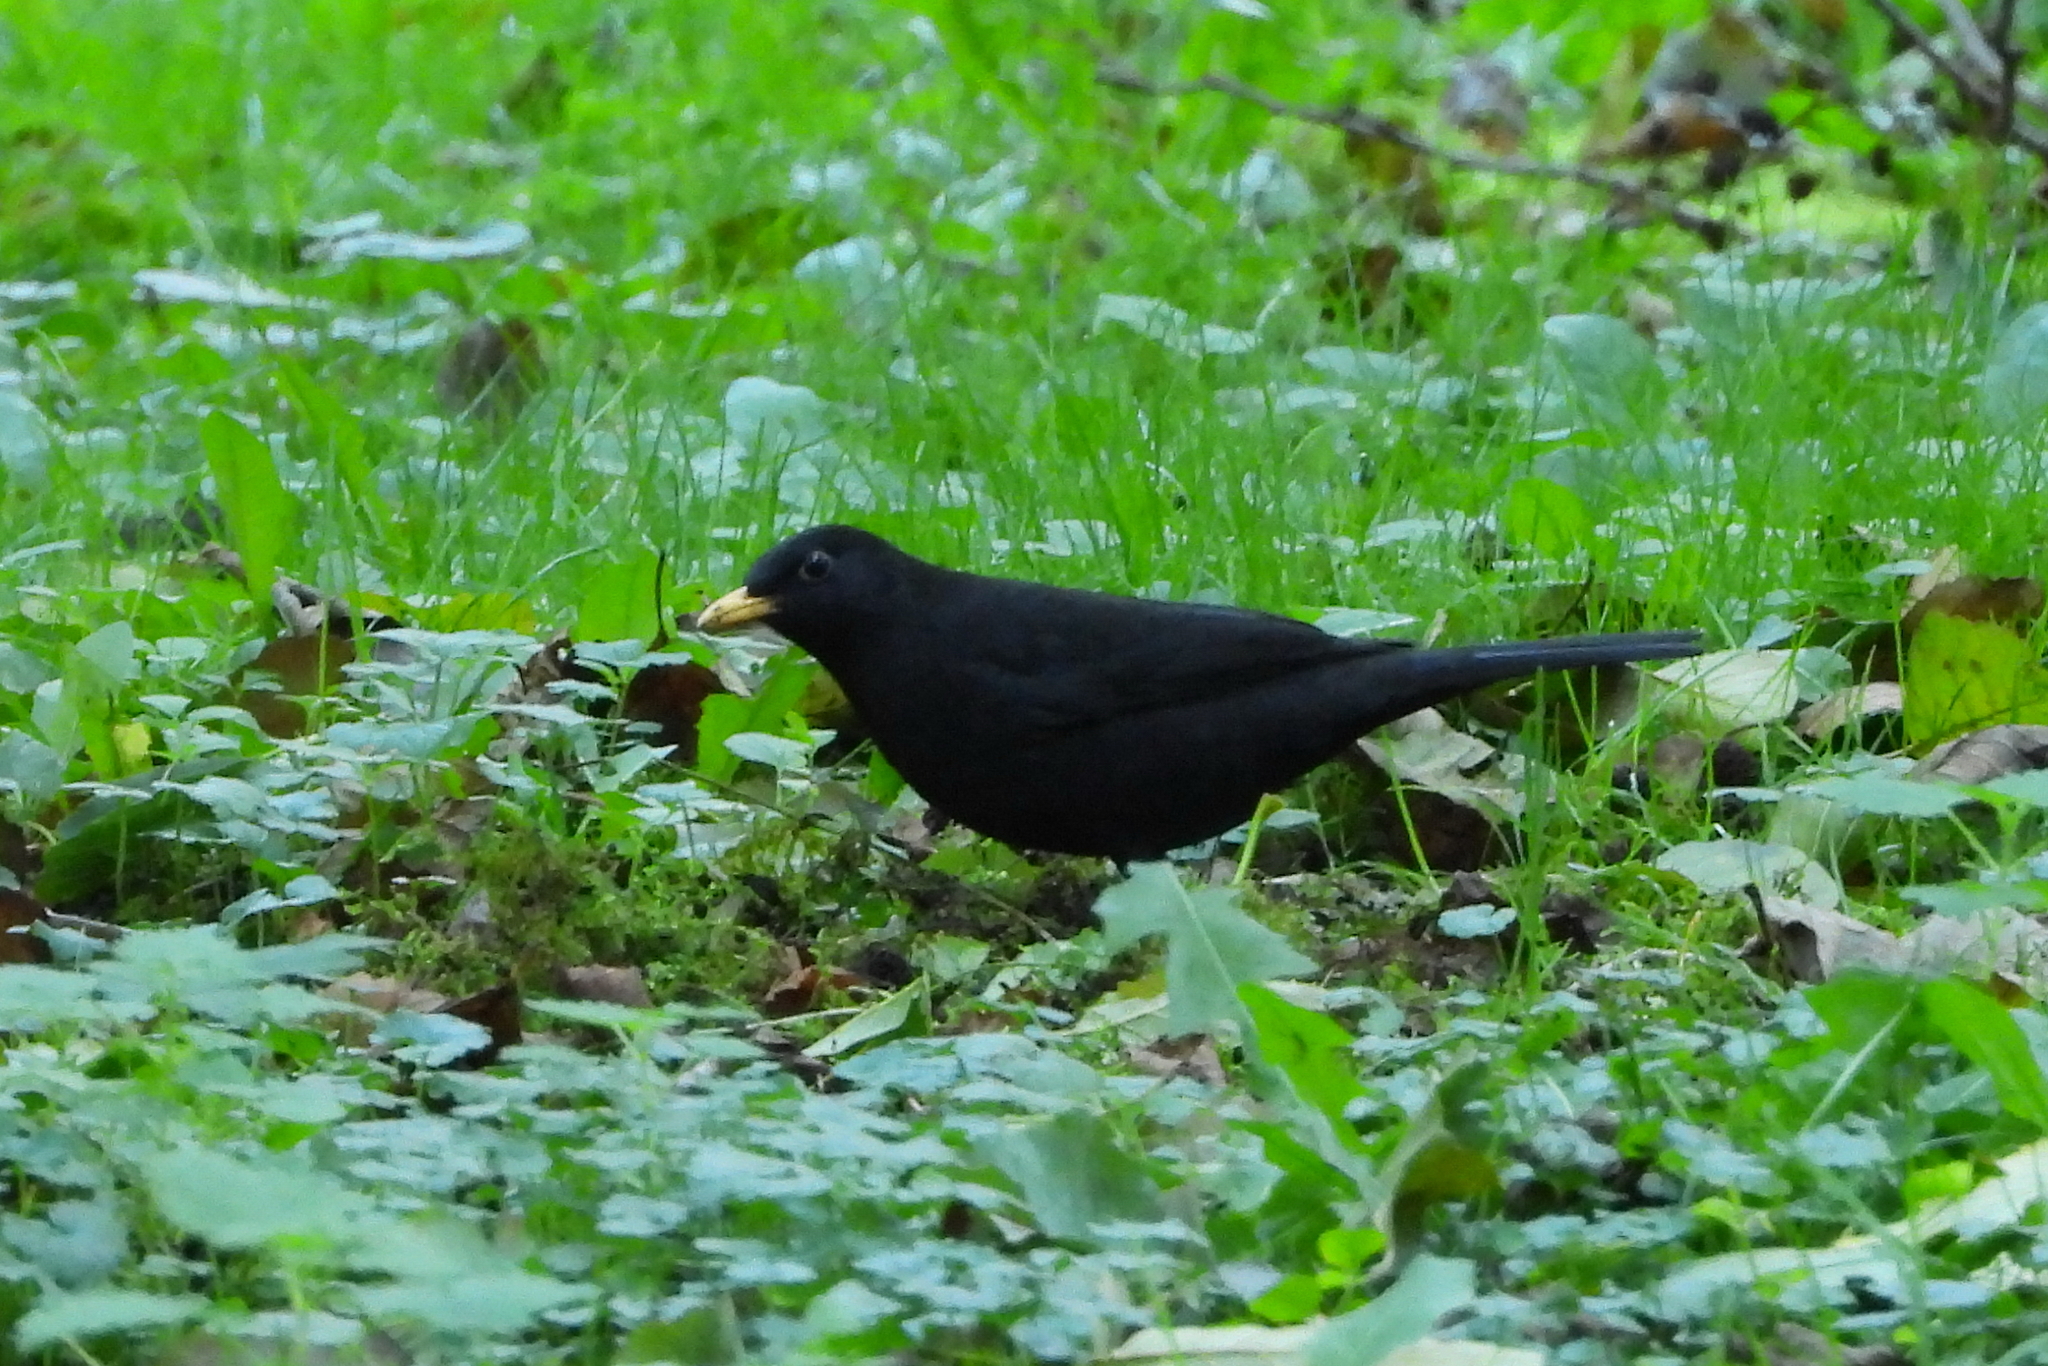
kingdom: Animalia
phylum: Chordata
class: Aves
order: Passeriformes
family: Turdidae
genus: Turdus
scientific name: Turdus merula
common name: Common blackbird
